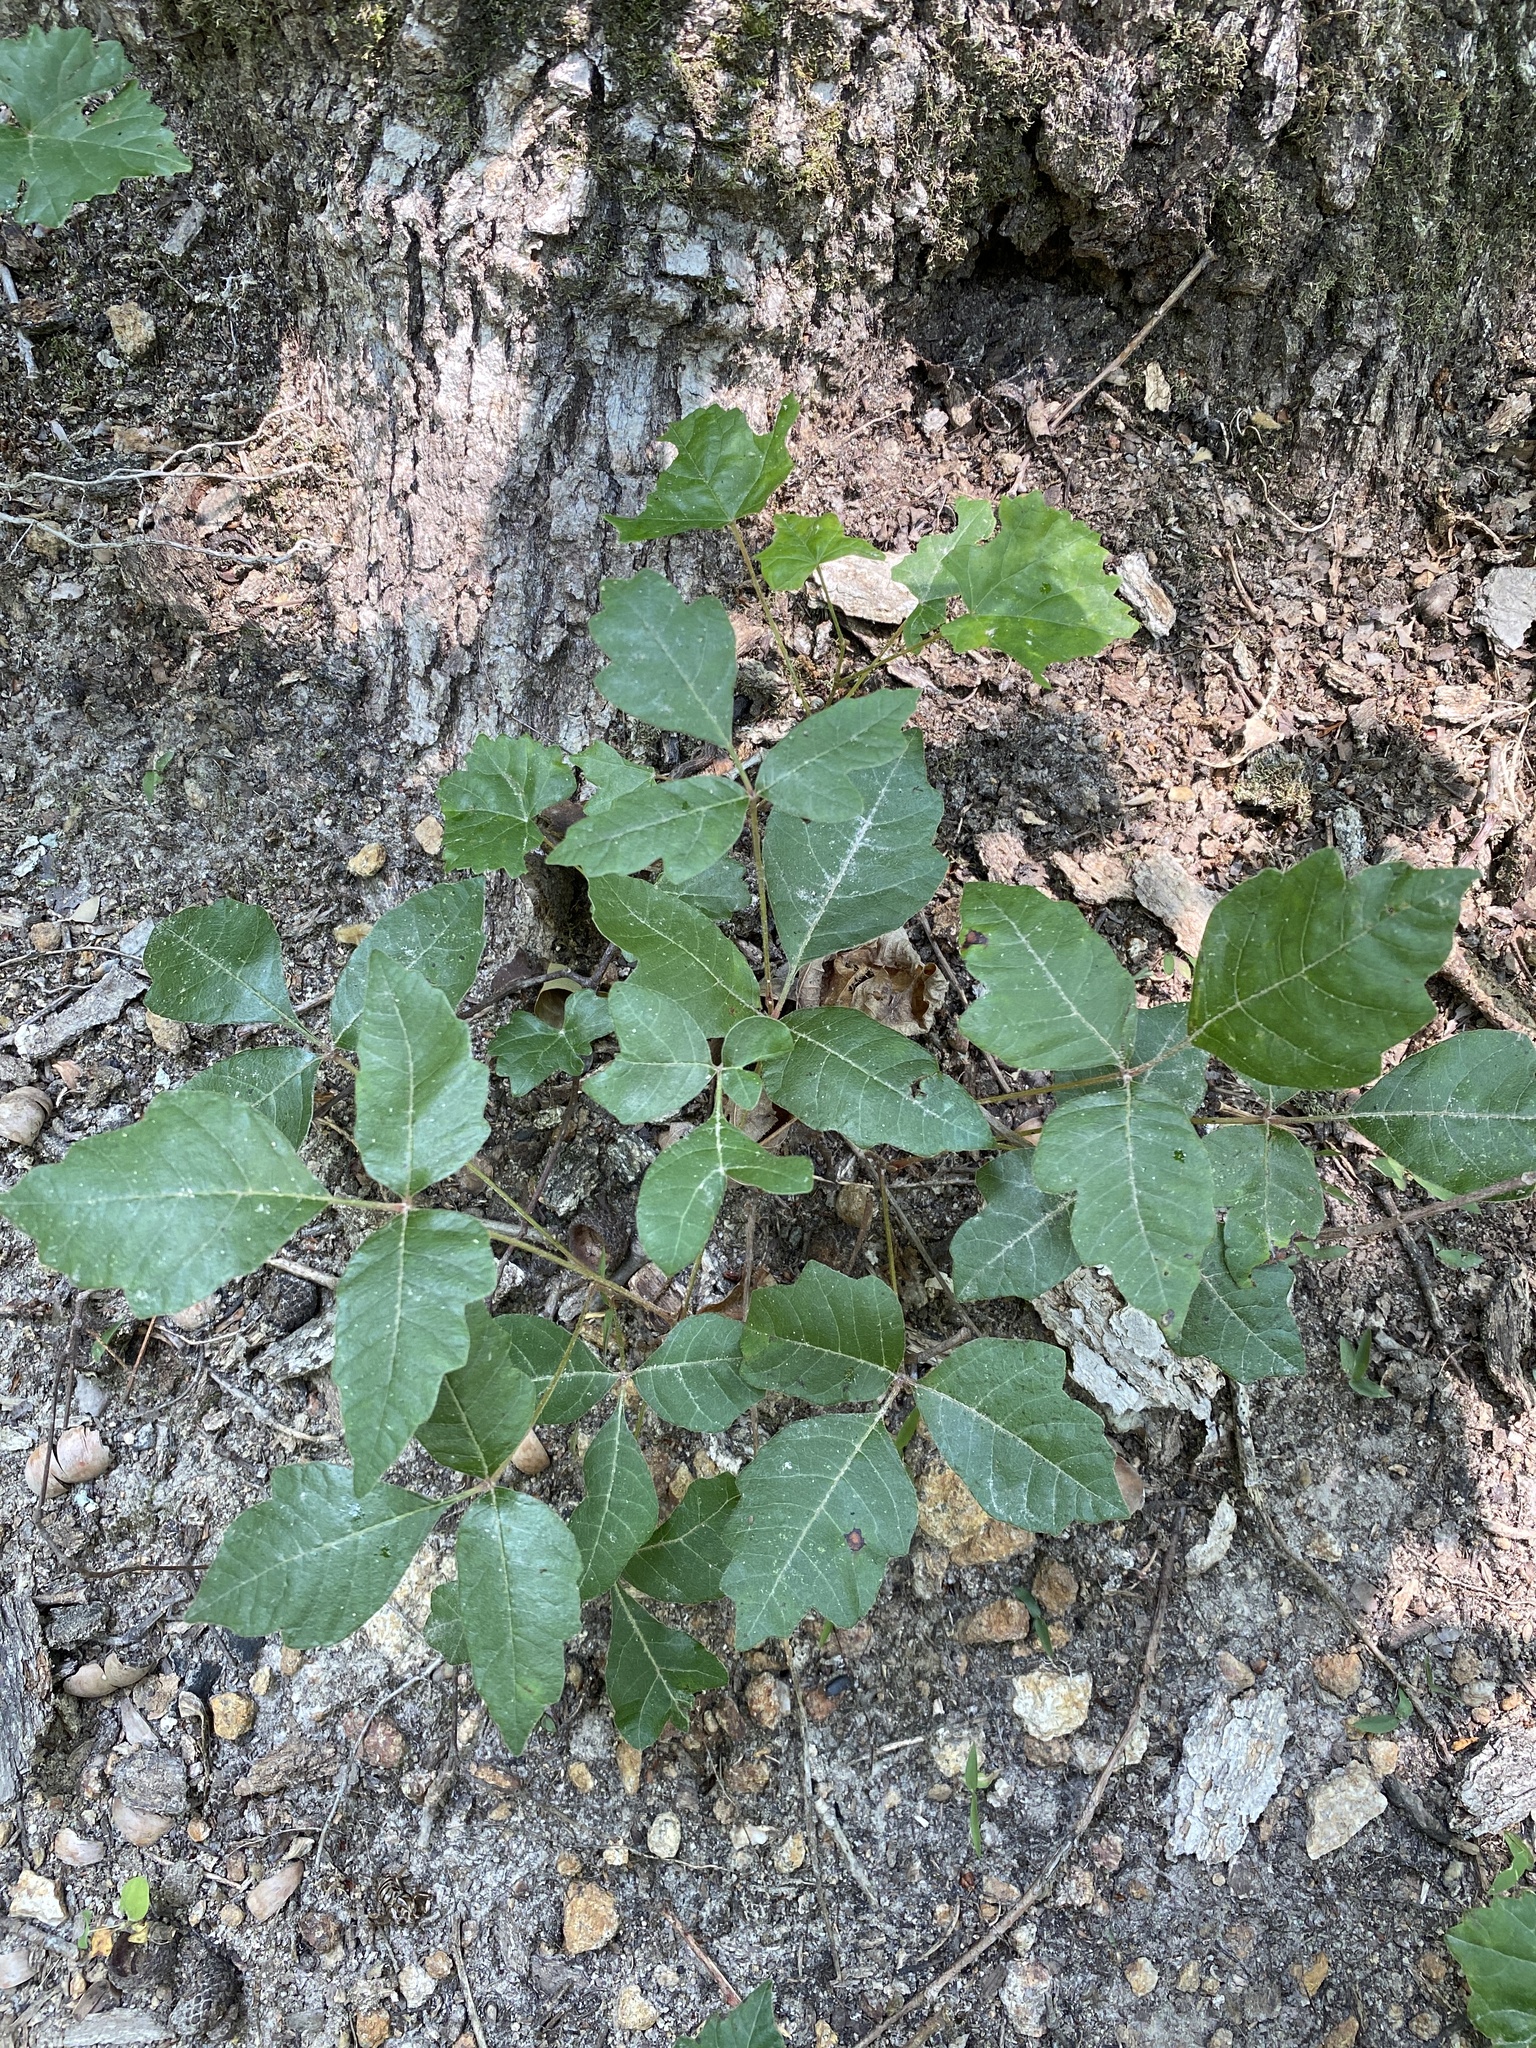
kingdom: Plantae
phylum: Tracheophyta
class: Magnoliopsida
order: Sapindales
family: Anacardiaceae
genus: Toxicodendron
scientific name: Toxicodendron radicans
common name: Poison ivy
